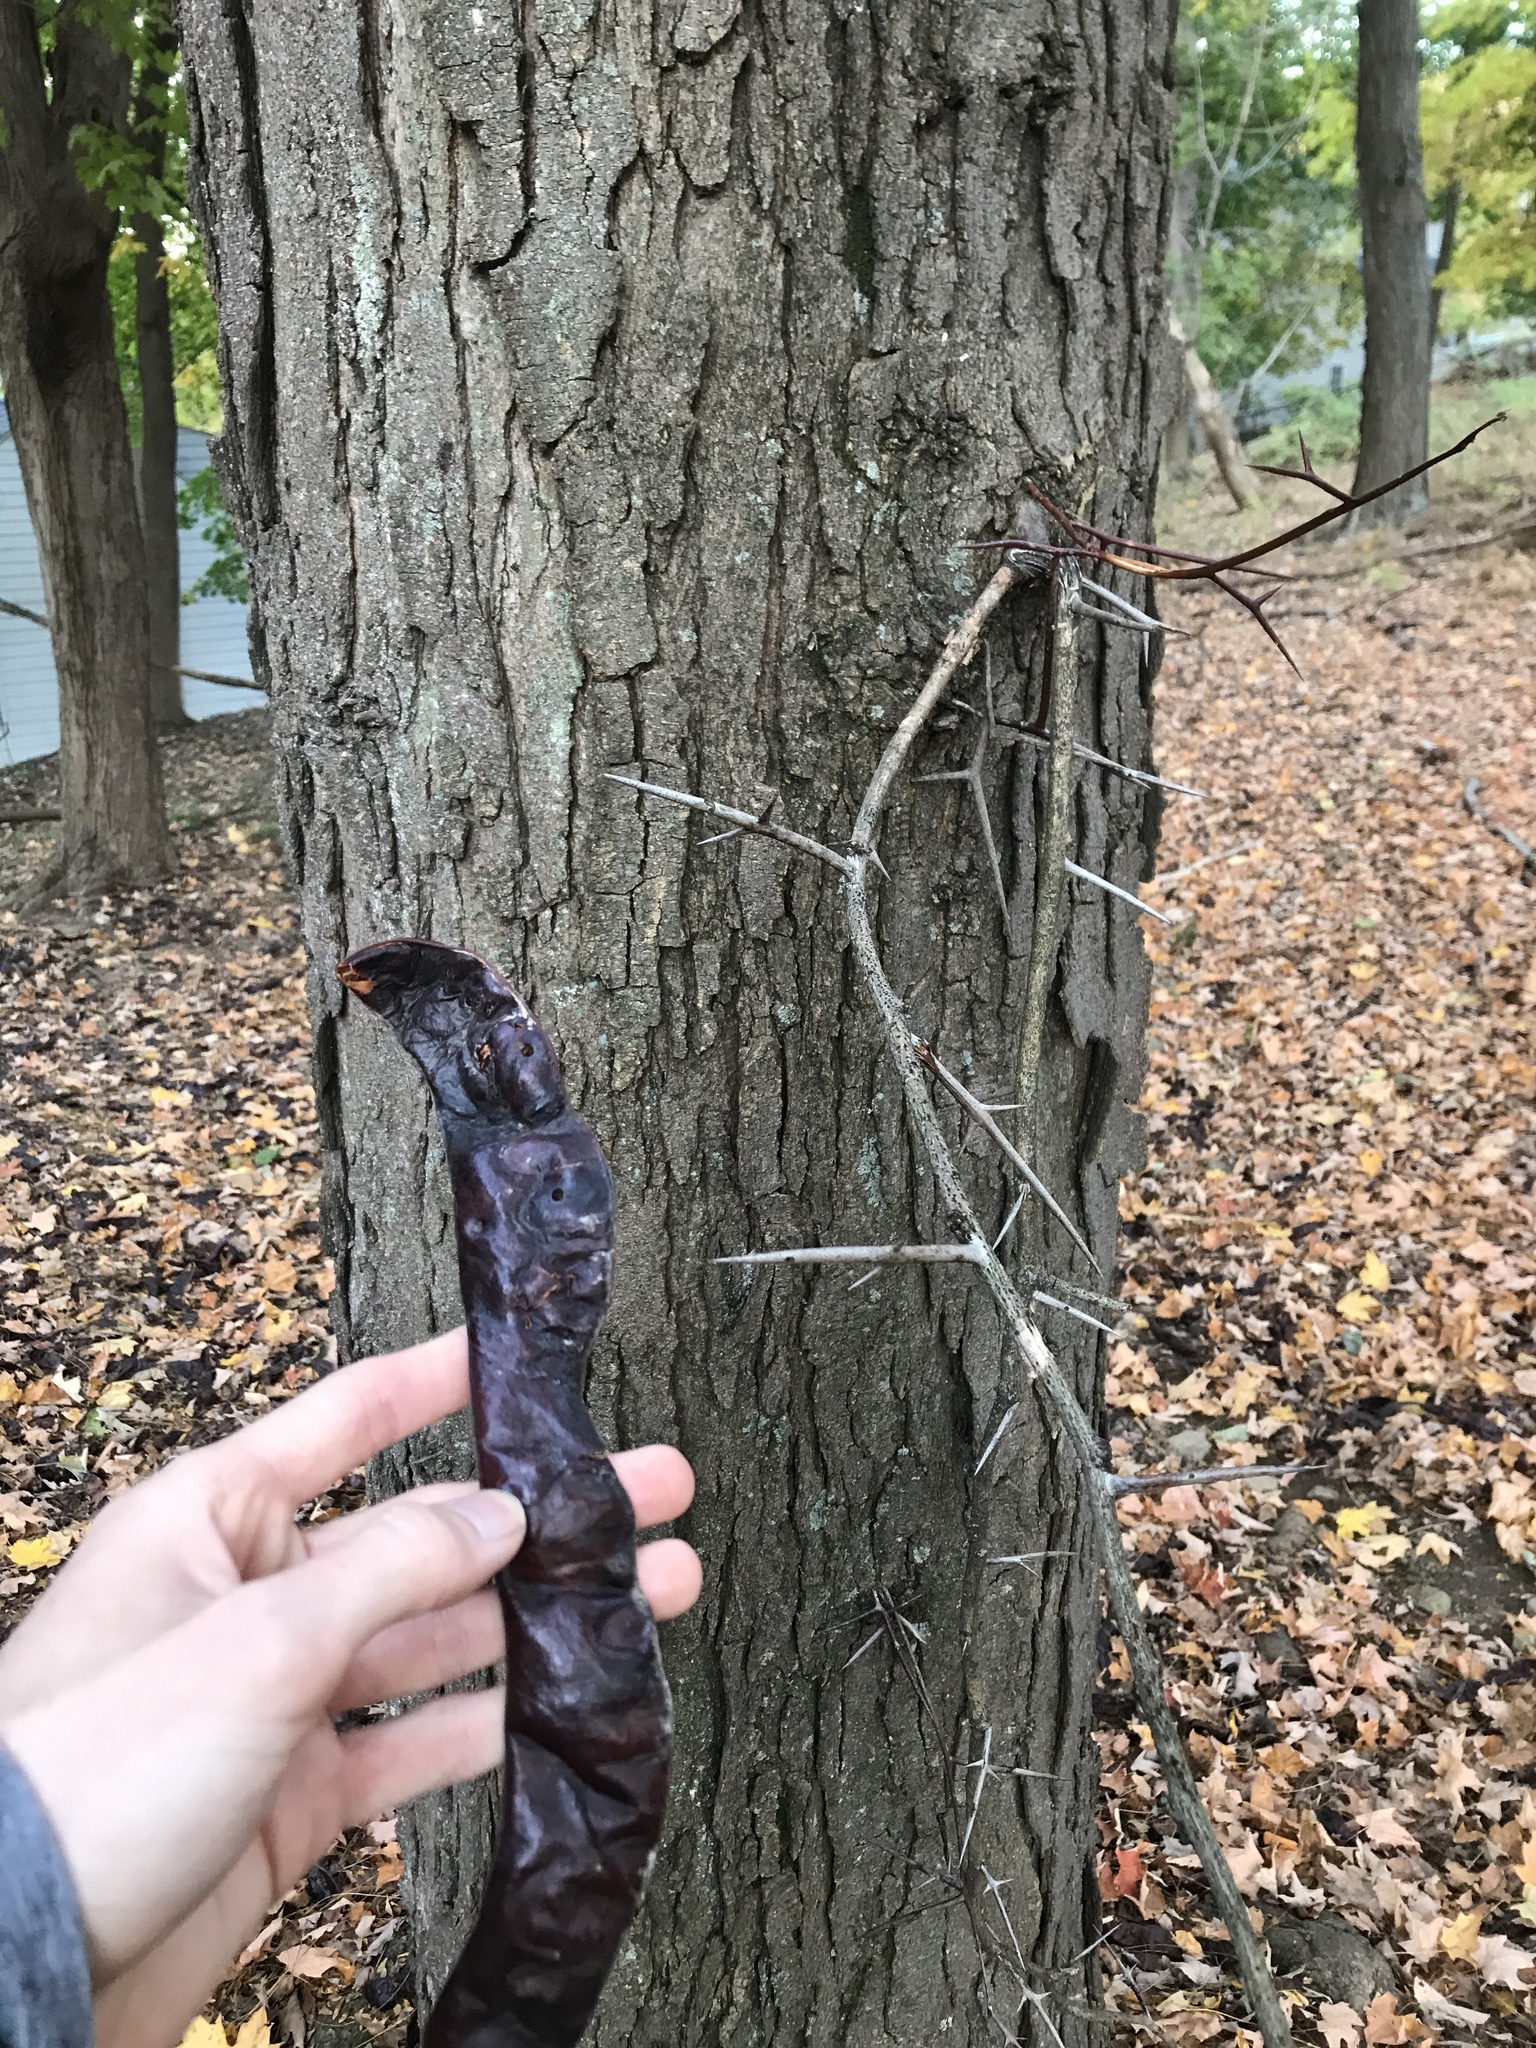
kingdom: Plantae
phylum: Tracheophyta
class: Magnoliopsida
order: Fabales
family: Fabaceae
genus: Gleditsia
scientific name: Gleditsia triacanthos
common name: Common honeylocust
